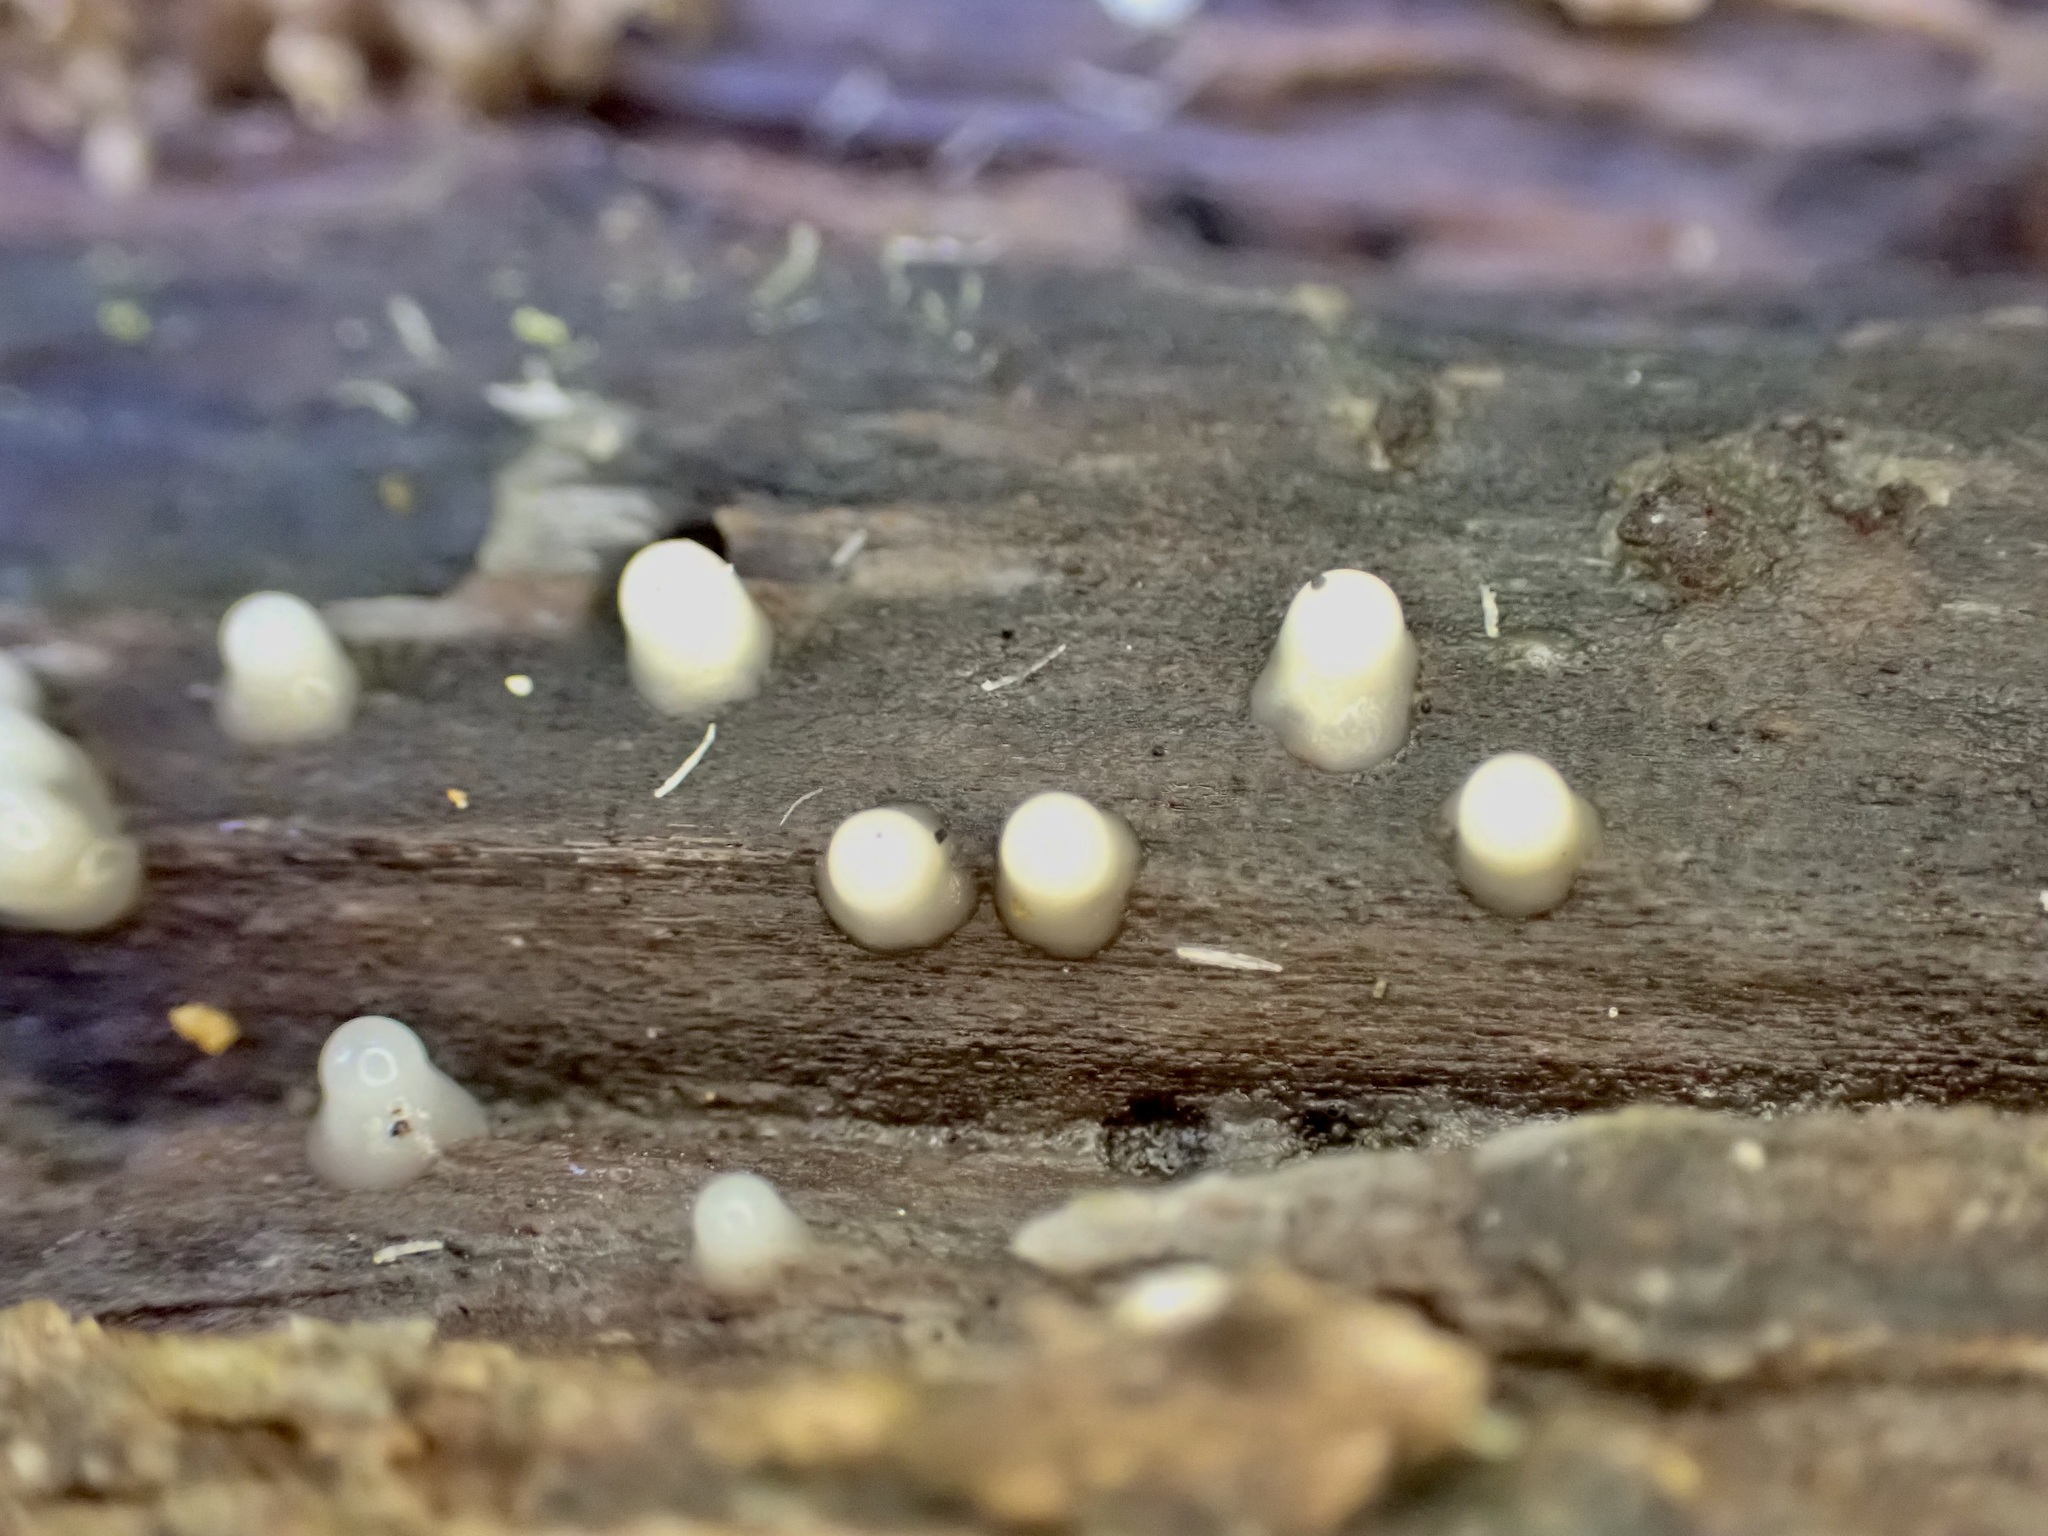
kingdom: Fungi
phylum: Basidiomycota
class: Atractiellomycetes
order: Atractiellales
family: Phleogenaceae
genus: Helicogloea
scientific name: Helicogloea compressa
